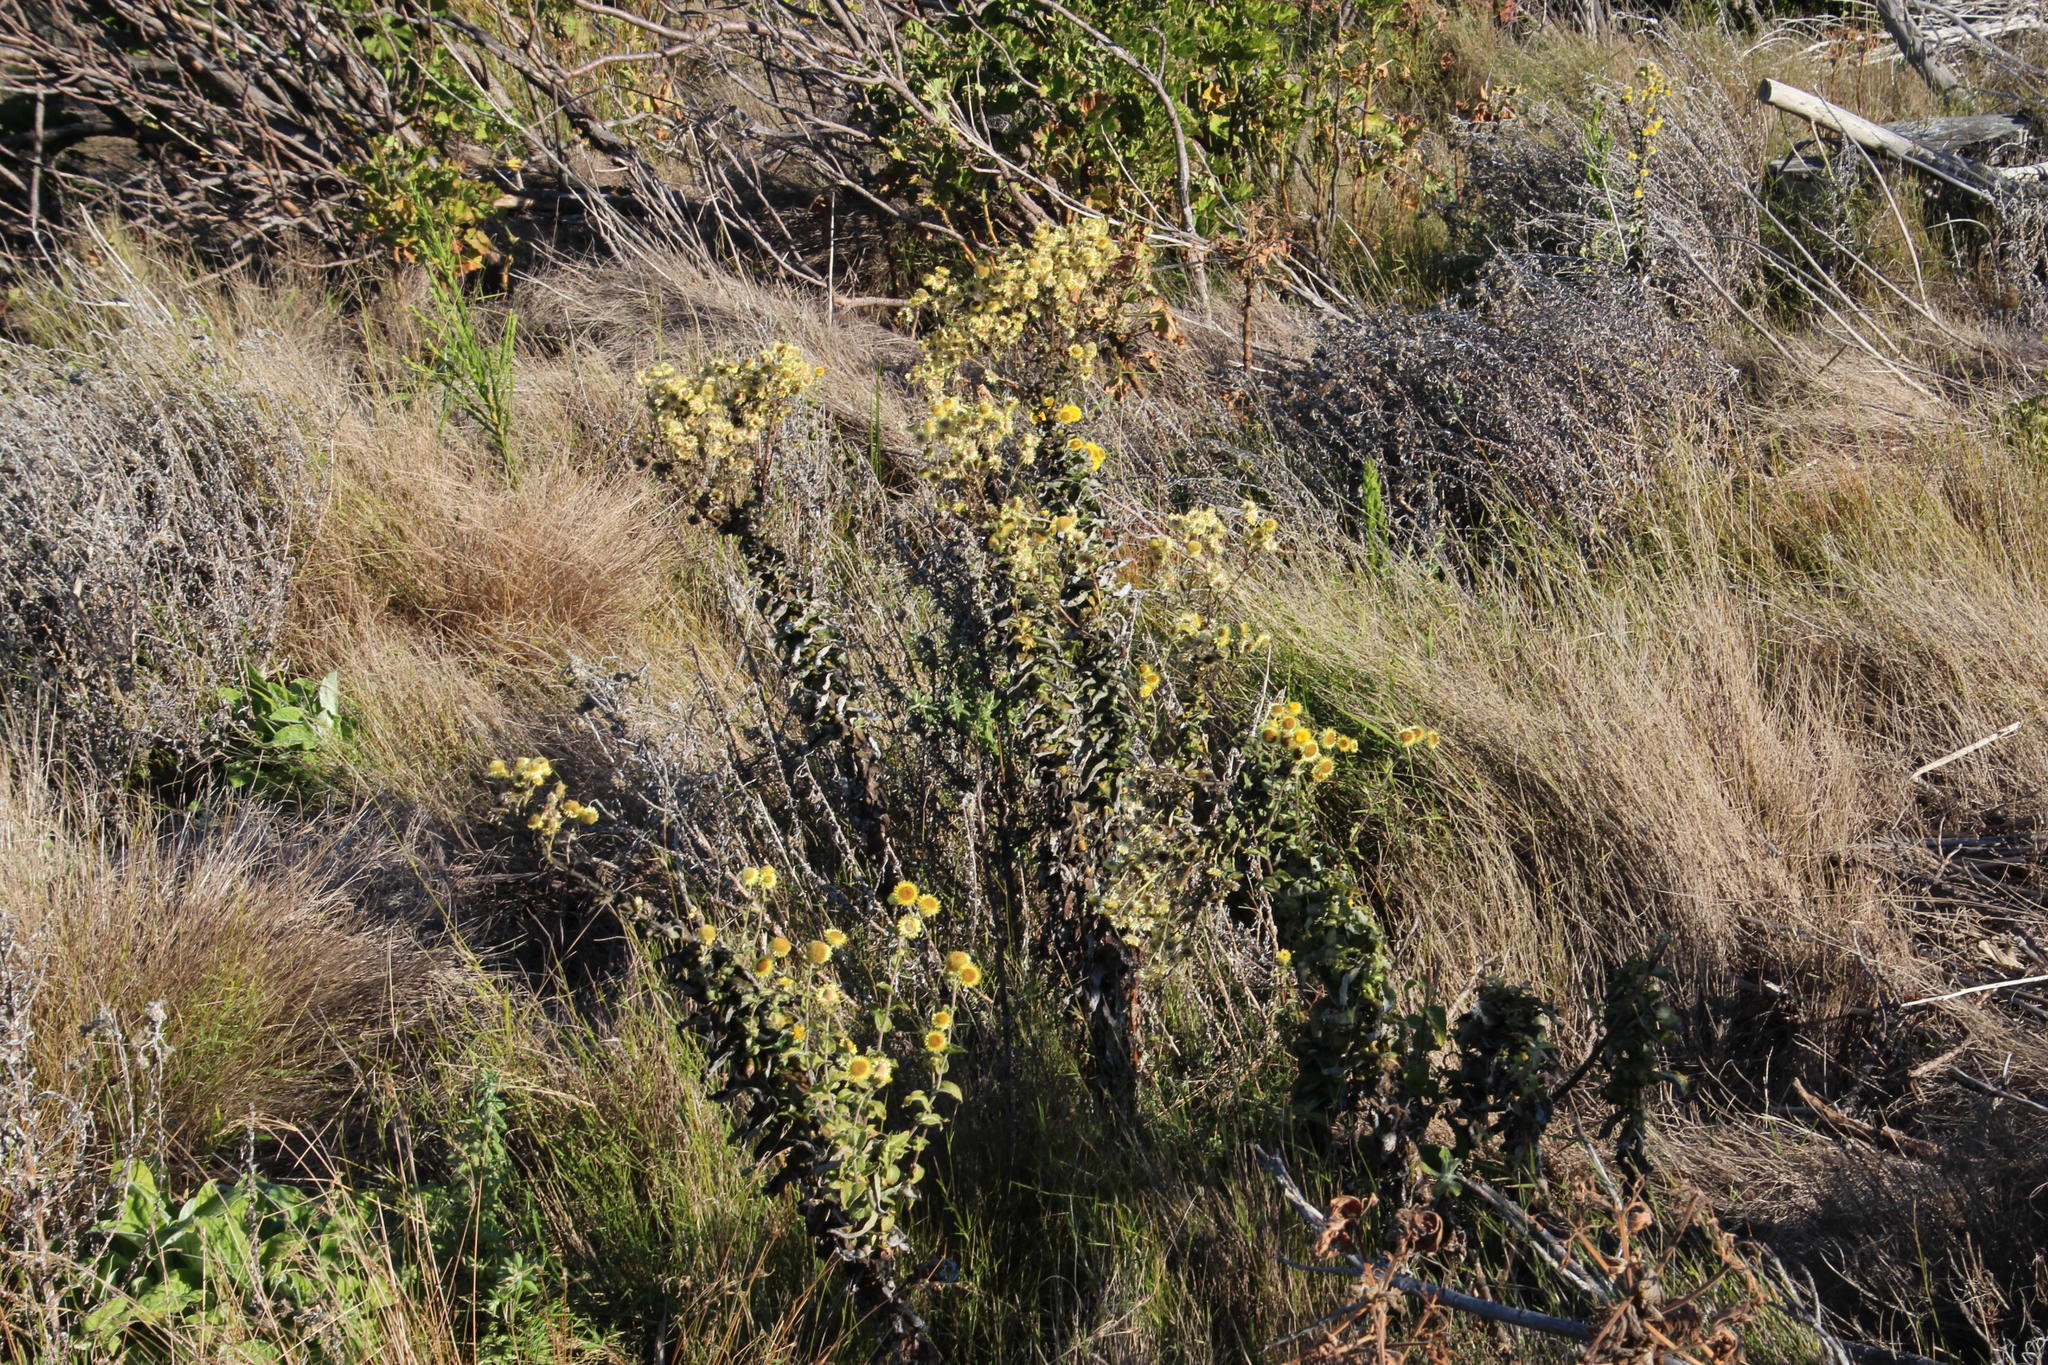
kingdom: Plantae
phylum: Tracheophyta
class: Magnoliopsida
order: Asterales
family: Asteraceae
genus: Helichrysum
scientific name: Helichrysum foetidum
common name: Stinking everlasting
